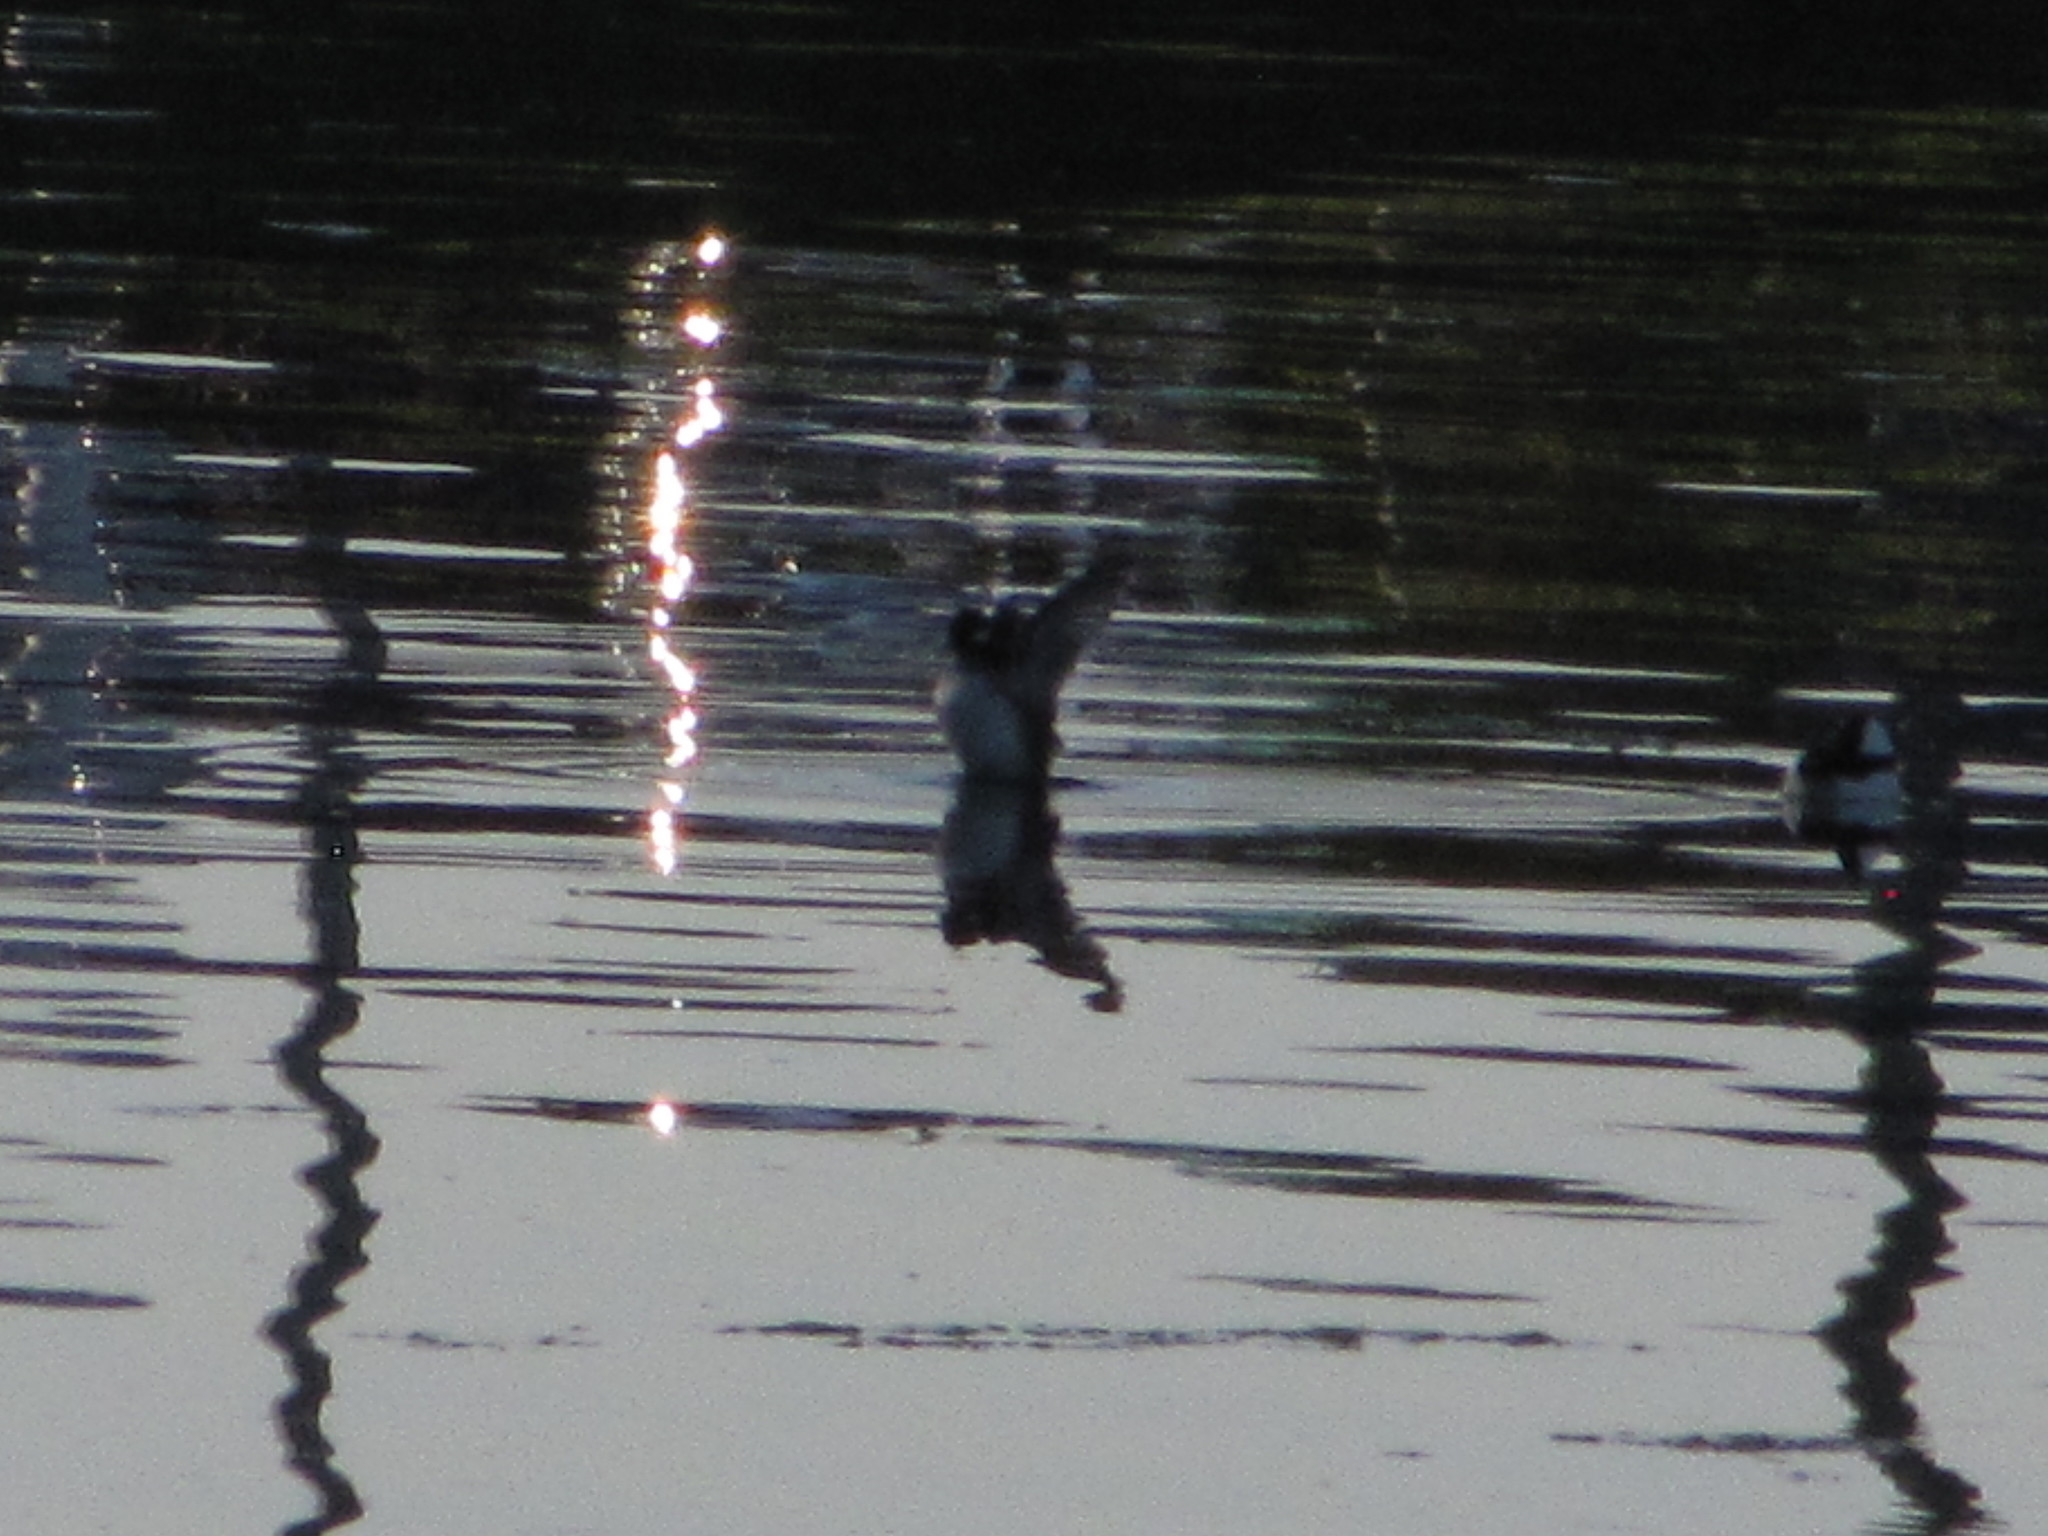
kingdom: Animalia
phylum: Chordata
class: Aves
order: Anseriformes
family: Anatidae
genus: Bucephala
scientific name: Bucephala albeola
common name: Bufflehead
